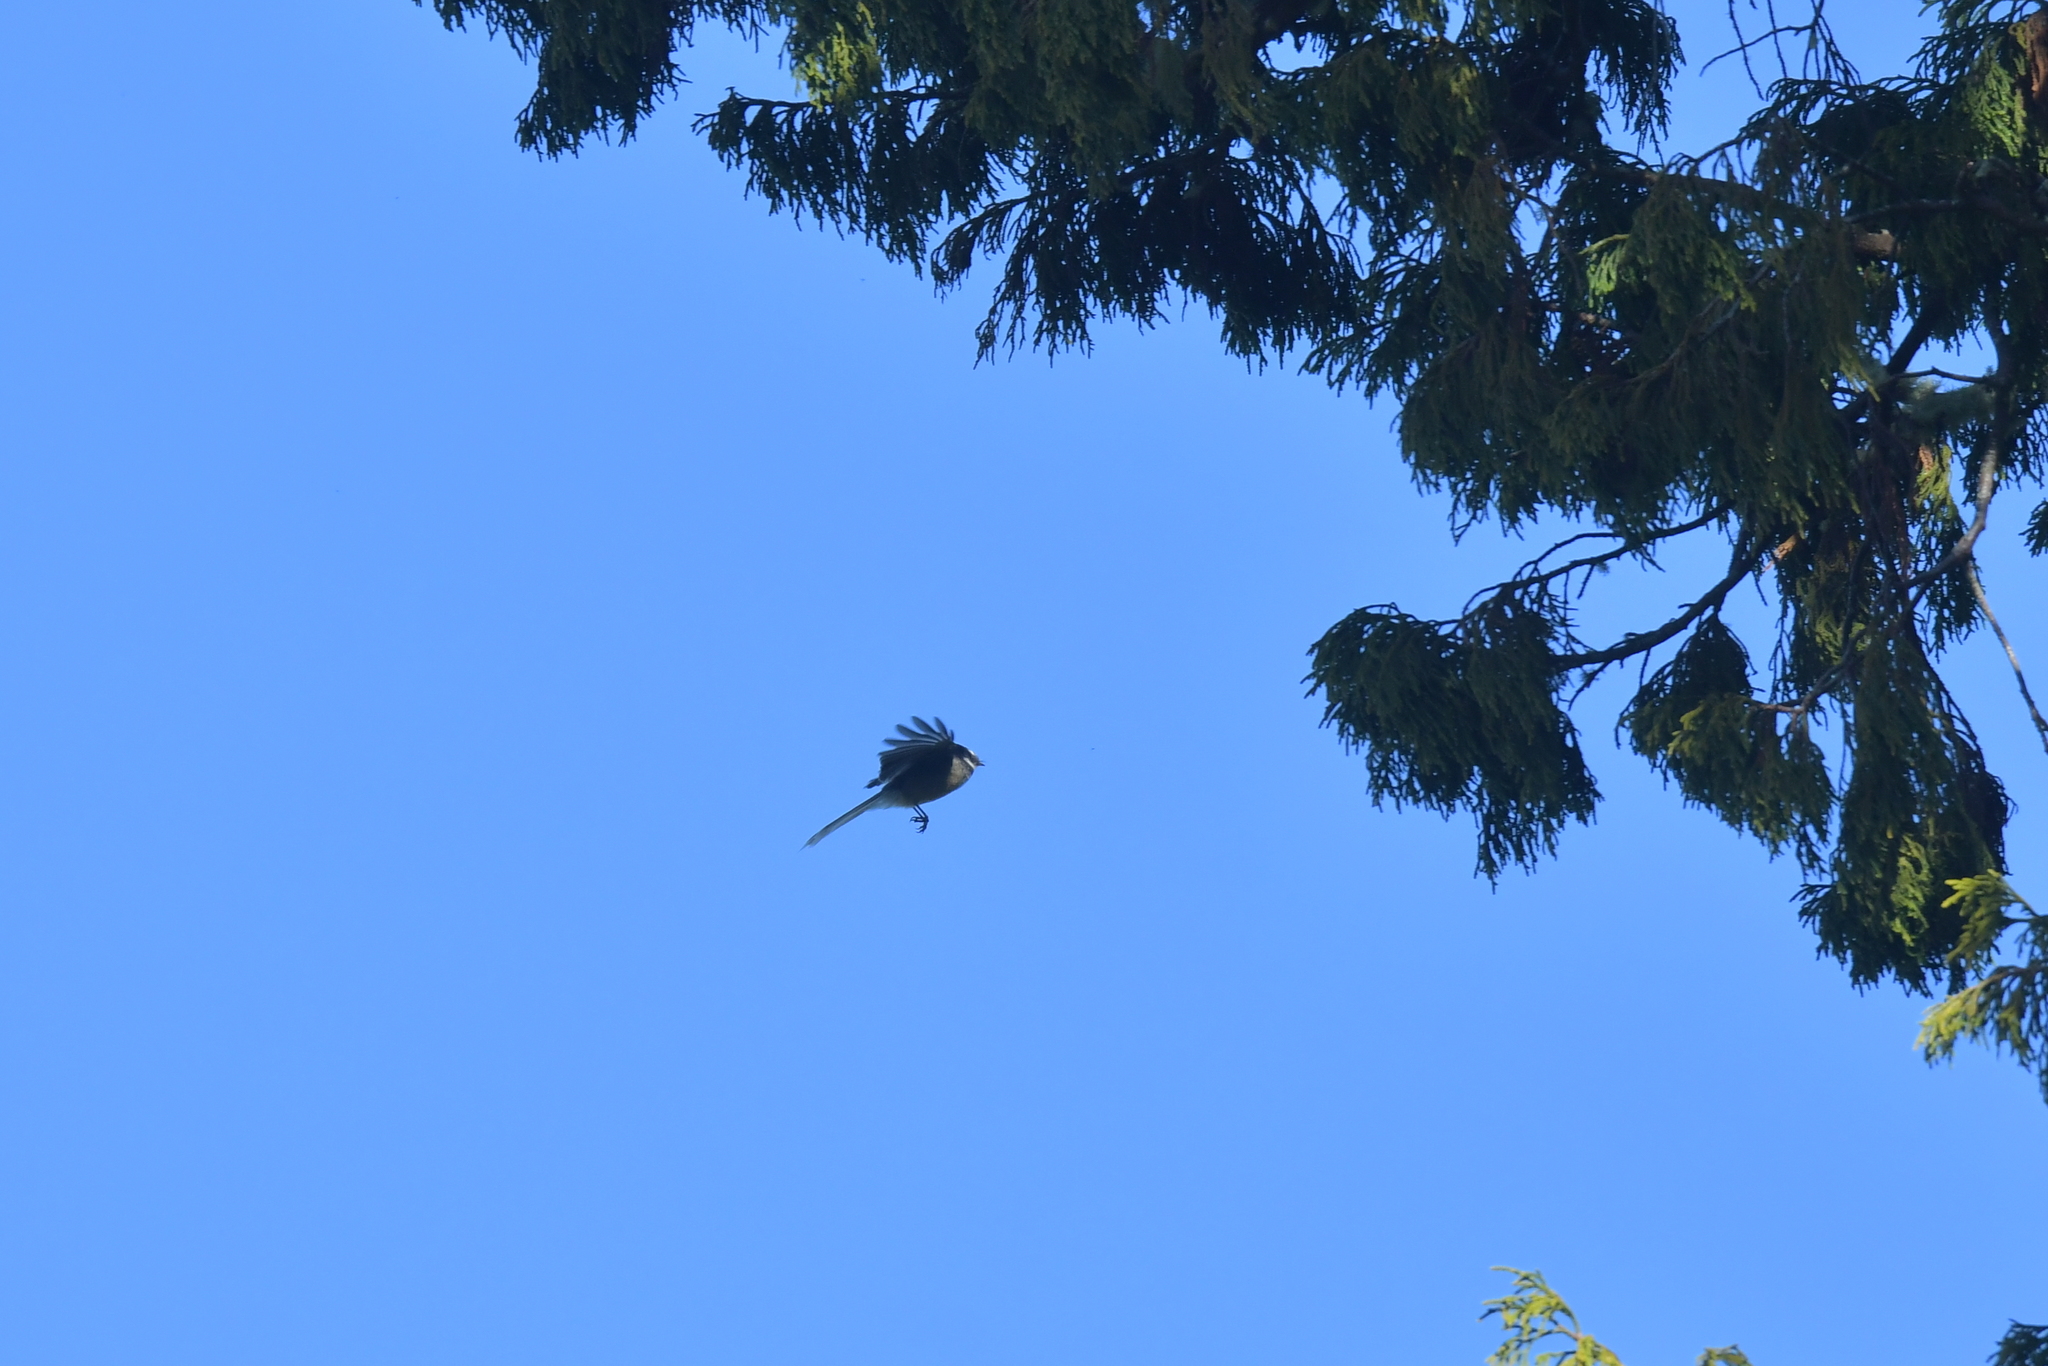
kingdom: Animalia
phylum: Chordata
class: Aves
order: Passeriformes
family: Rhipiduridae
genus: Rhipidura
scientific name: Rhipidura fuliginosa
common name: New zealand fantail
